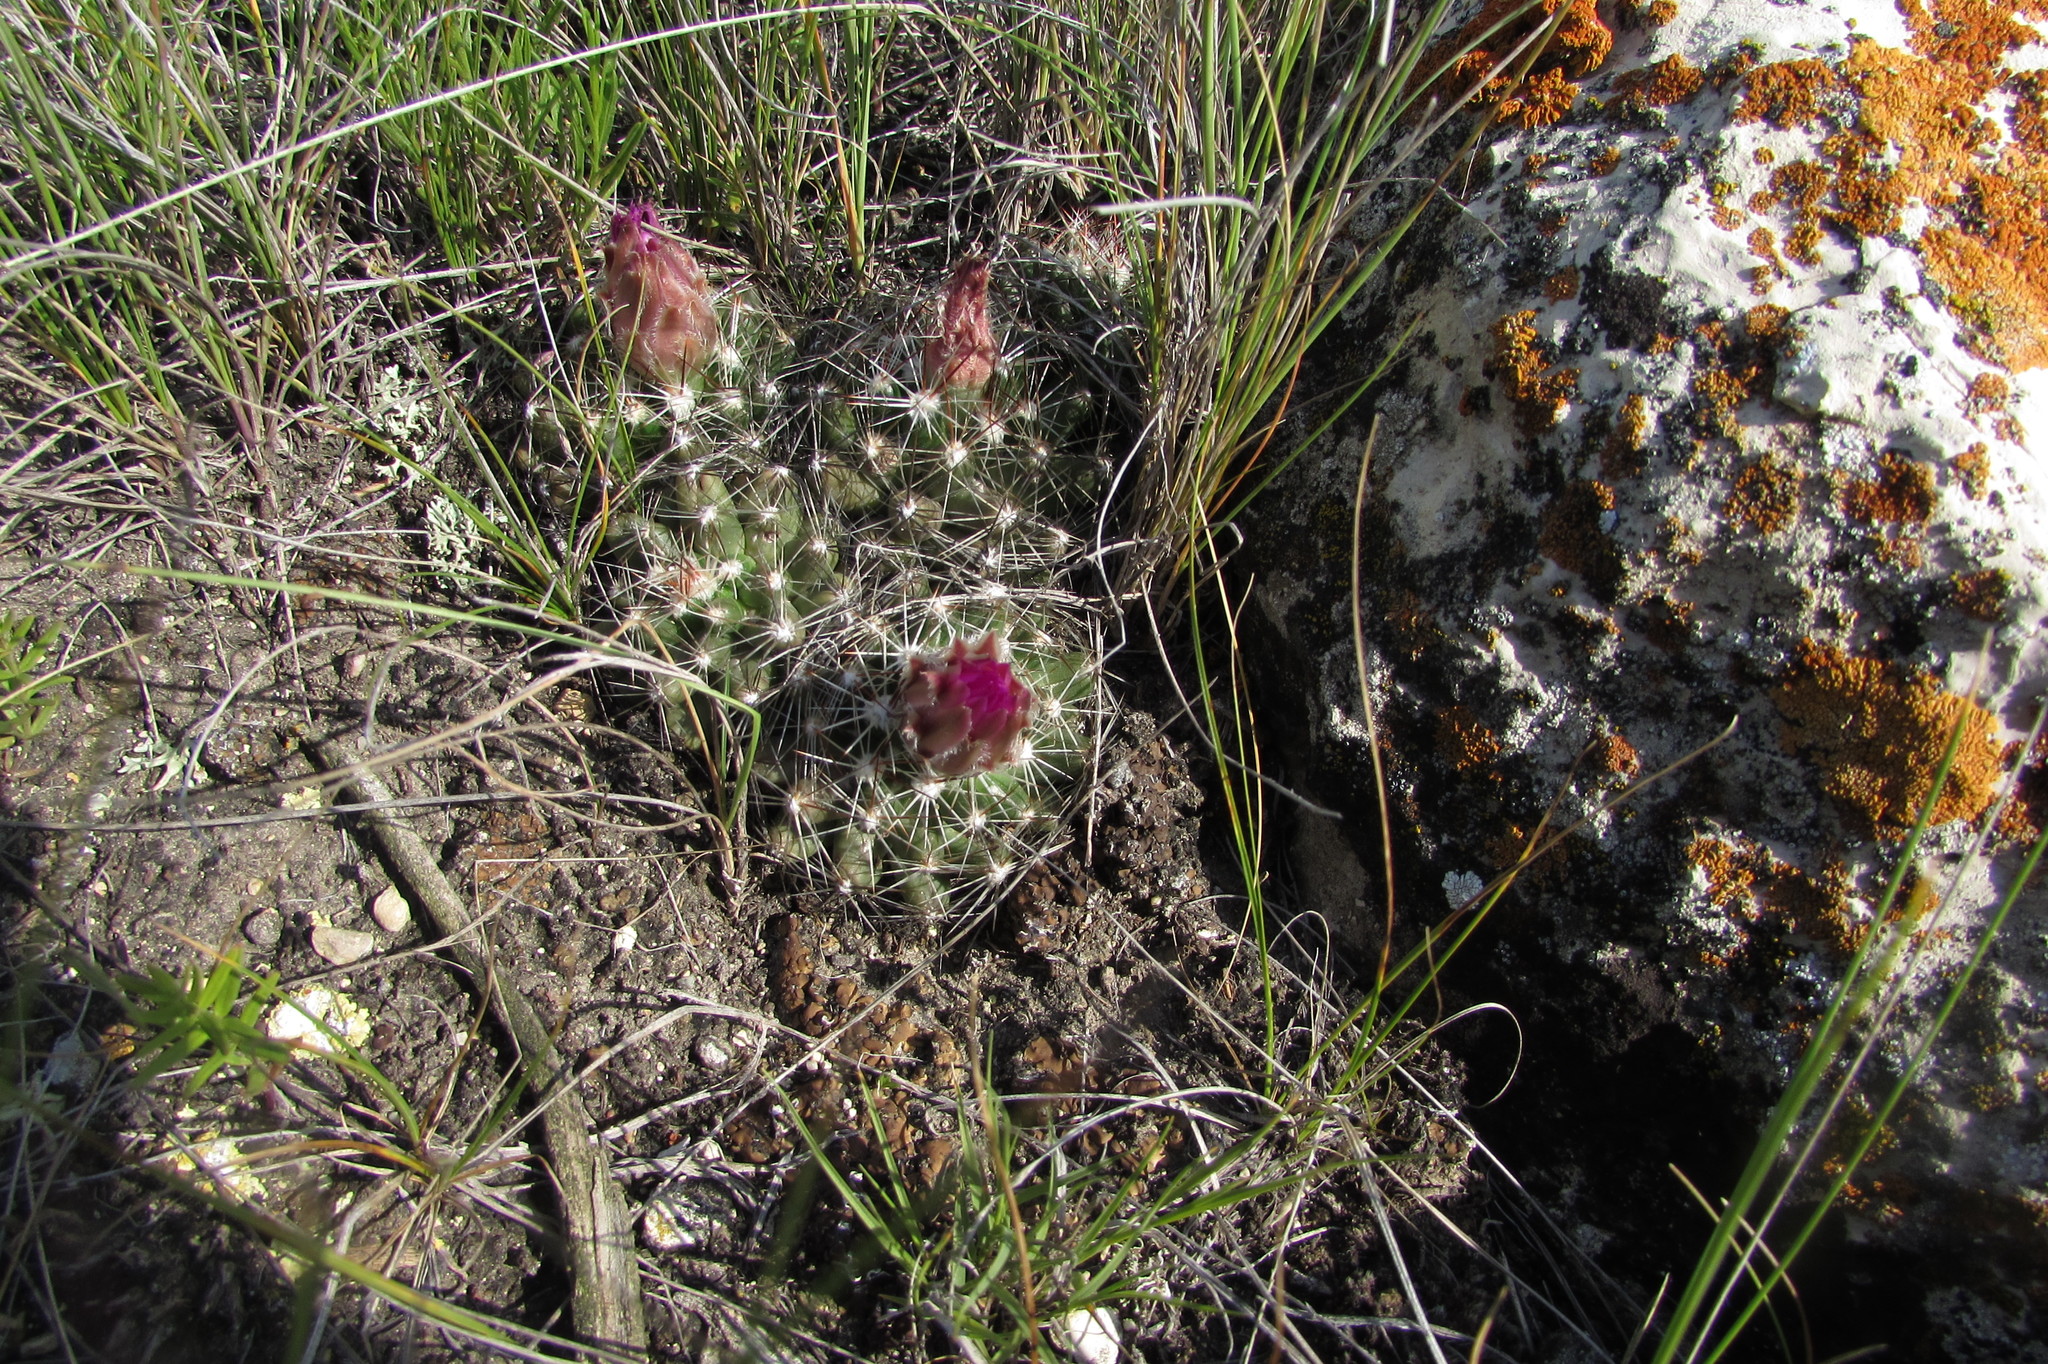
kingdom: Plantae
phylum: Tracheophyta
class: Magnoliopsida
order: Caryophyllales
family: Cactaceae
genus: Pelecyphora
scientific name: Pelecyphora vivipara
